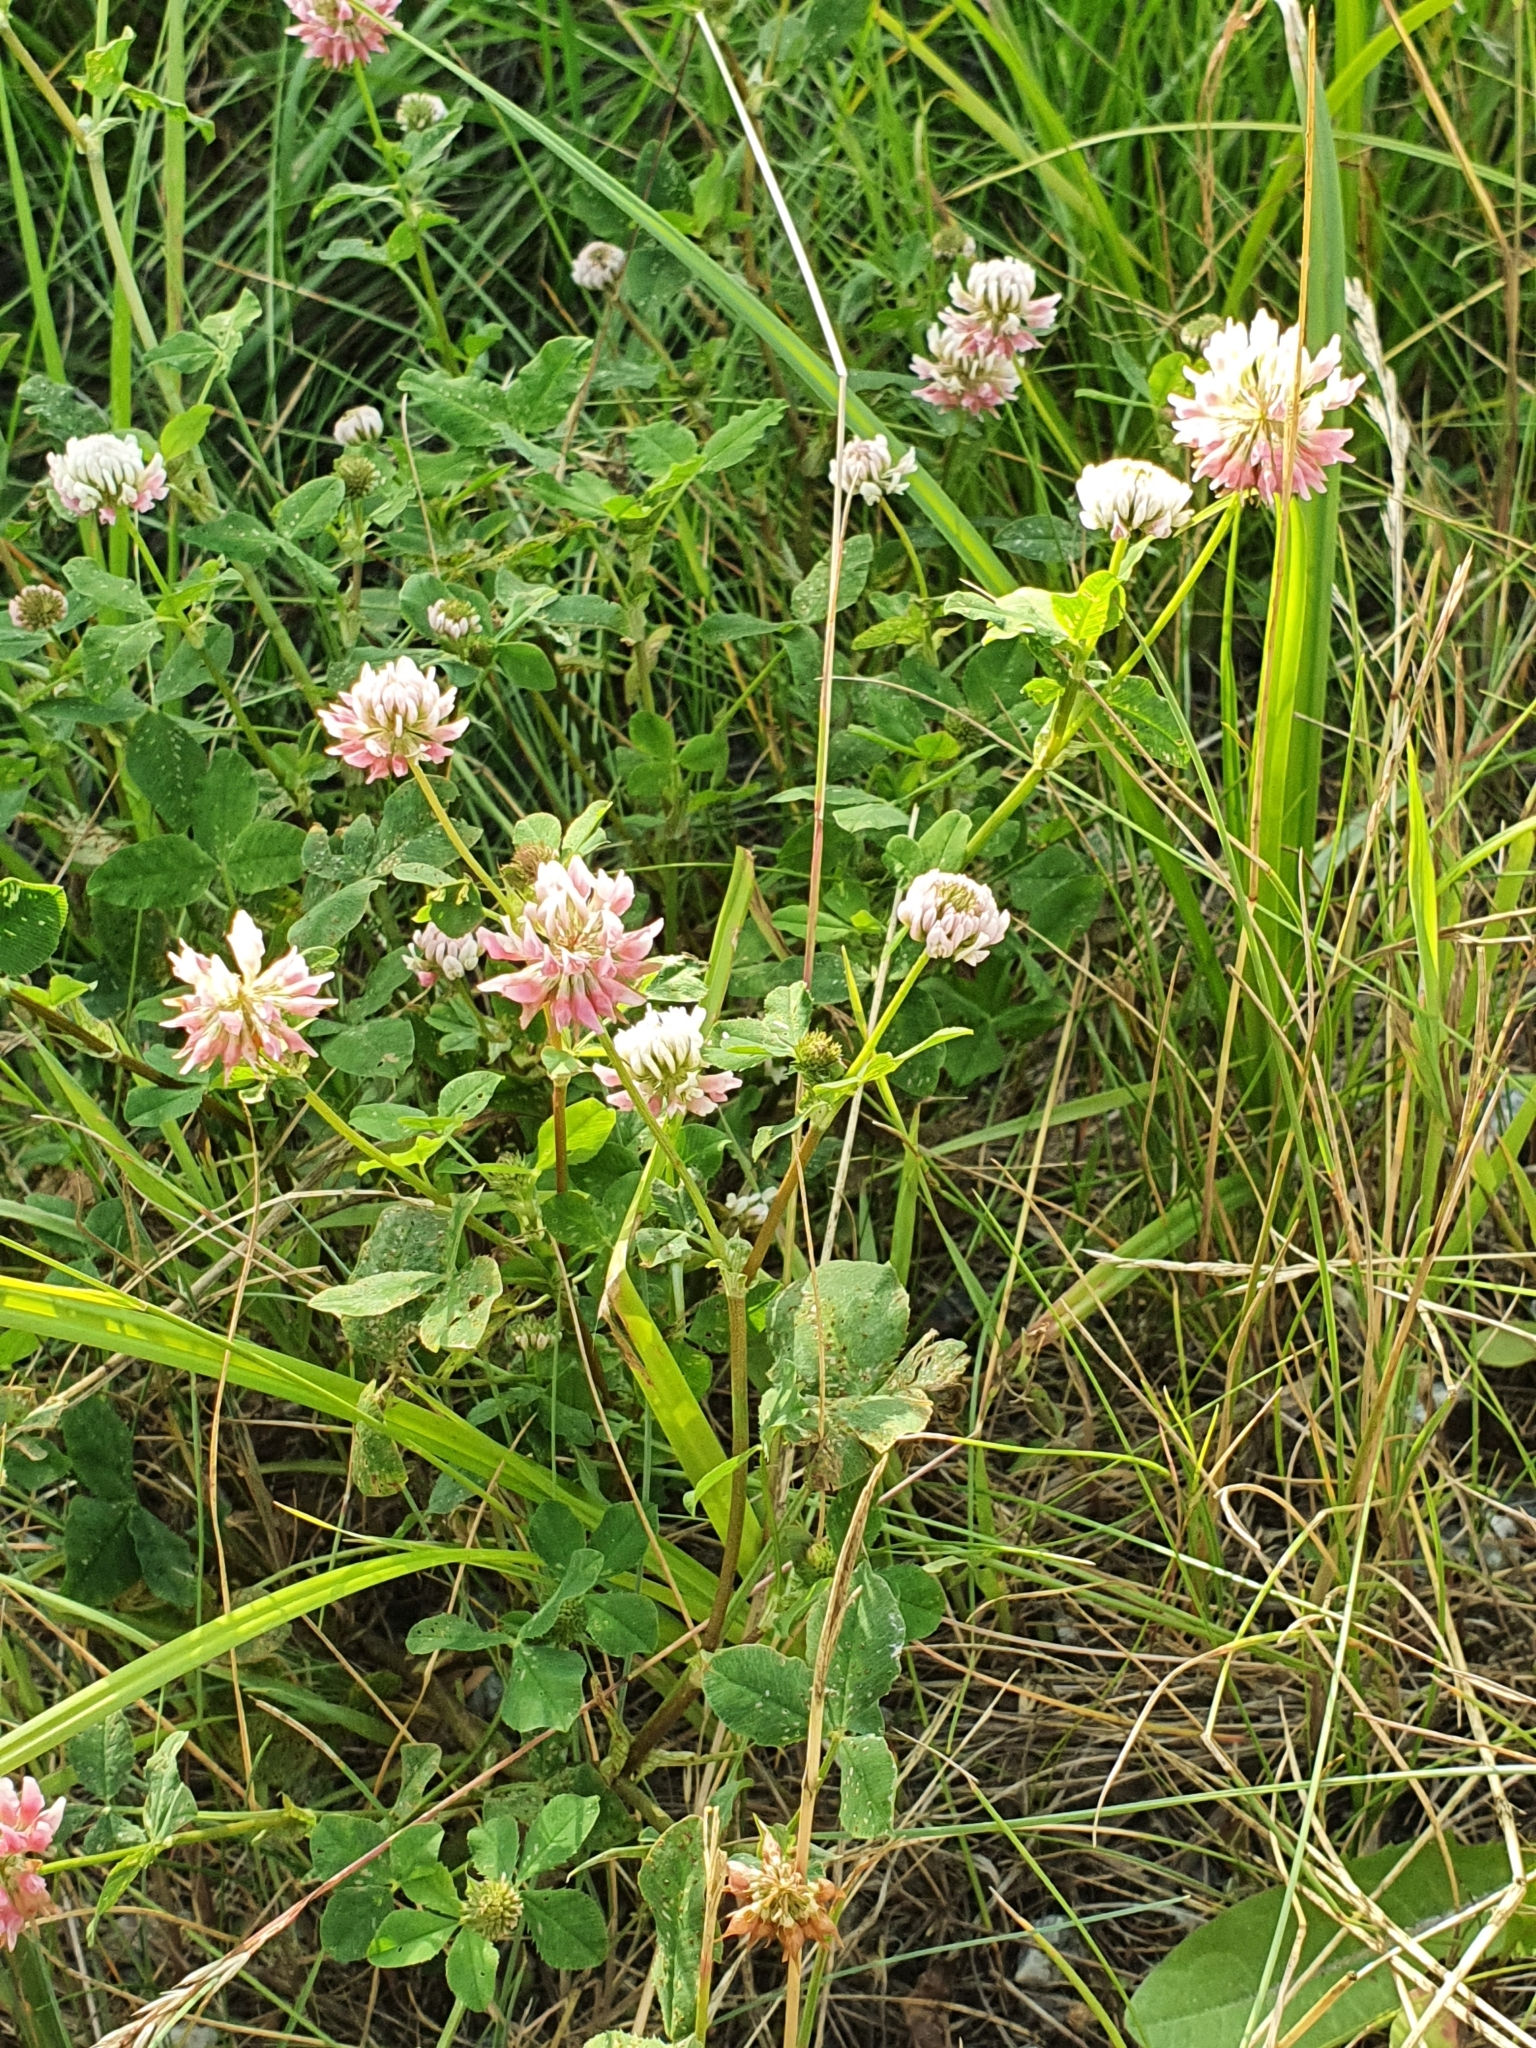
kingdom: Plantae
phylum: Tracheophyta
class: Magnoliopsida
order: Fabales
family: Fabaceae
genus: Trifolium
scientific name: Trifolium hybridum
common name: Alsike clover
